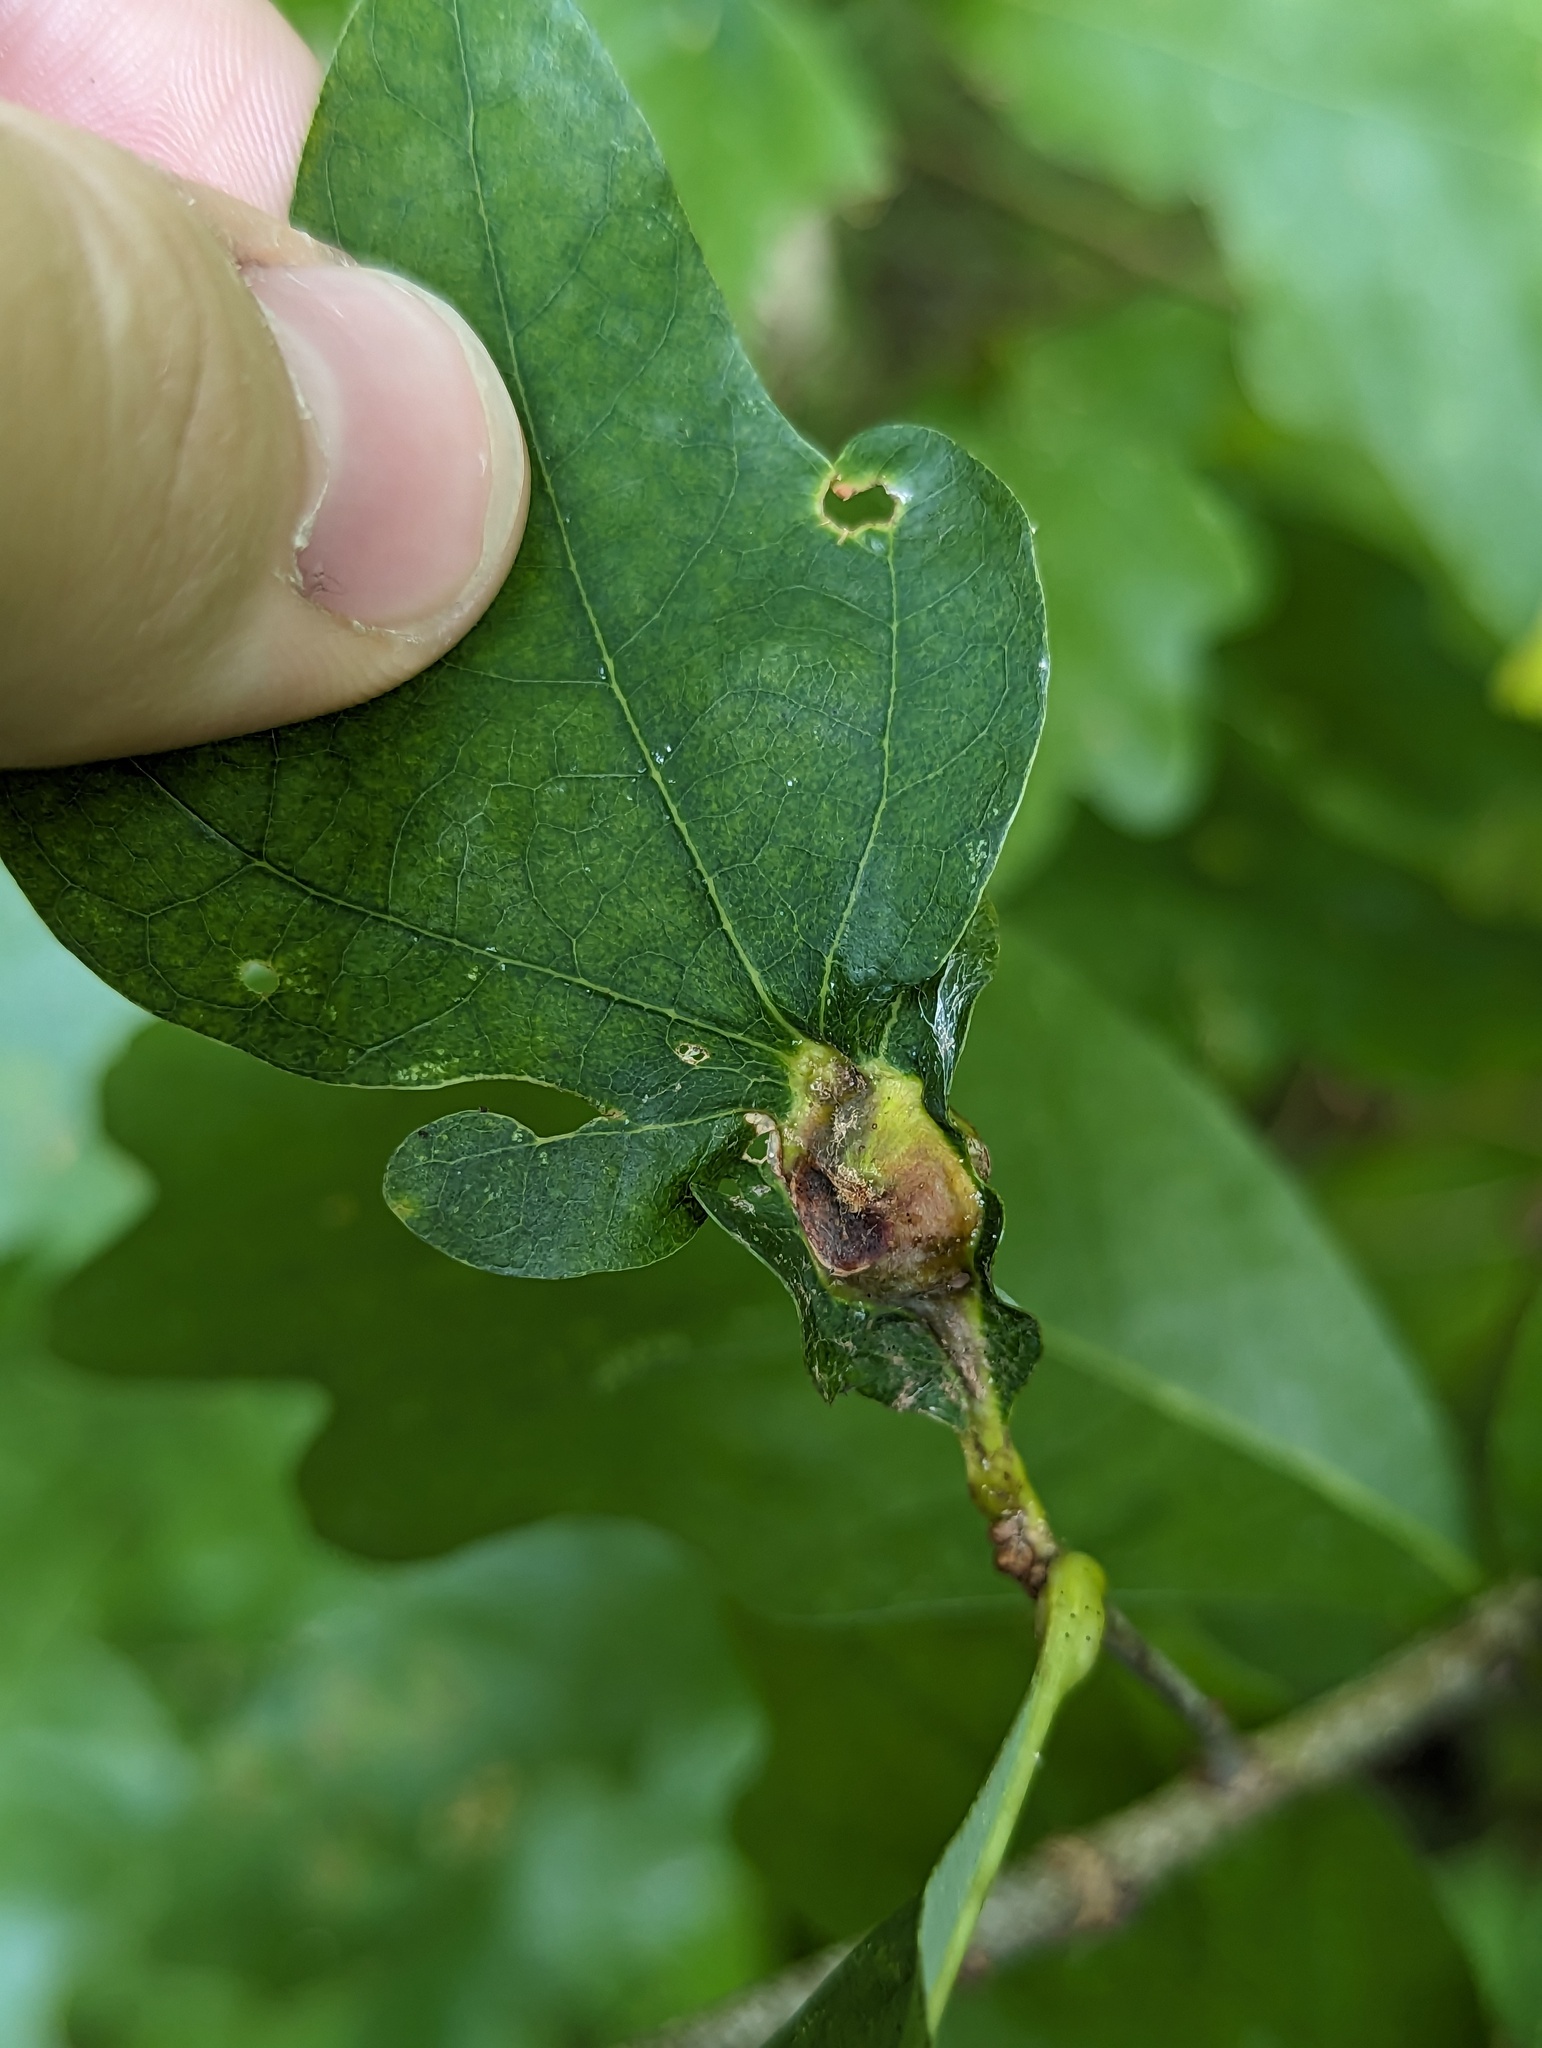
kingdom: Animalia
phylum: Arthropoda
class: Insecta
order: Hymenoptera
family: Cynipidae
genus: Andricus
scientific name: Andricus
